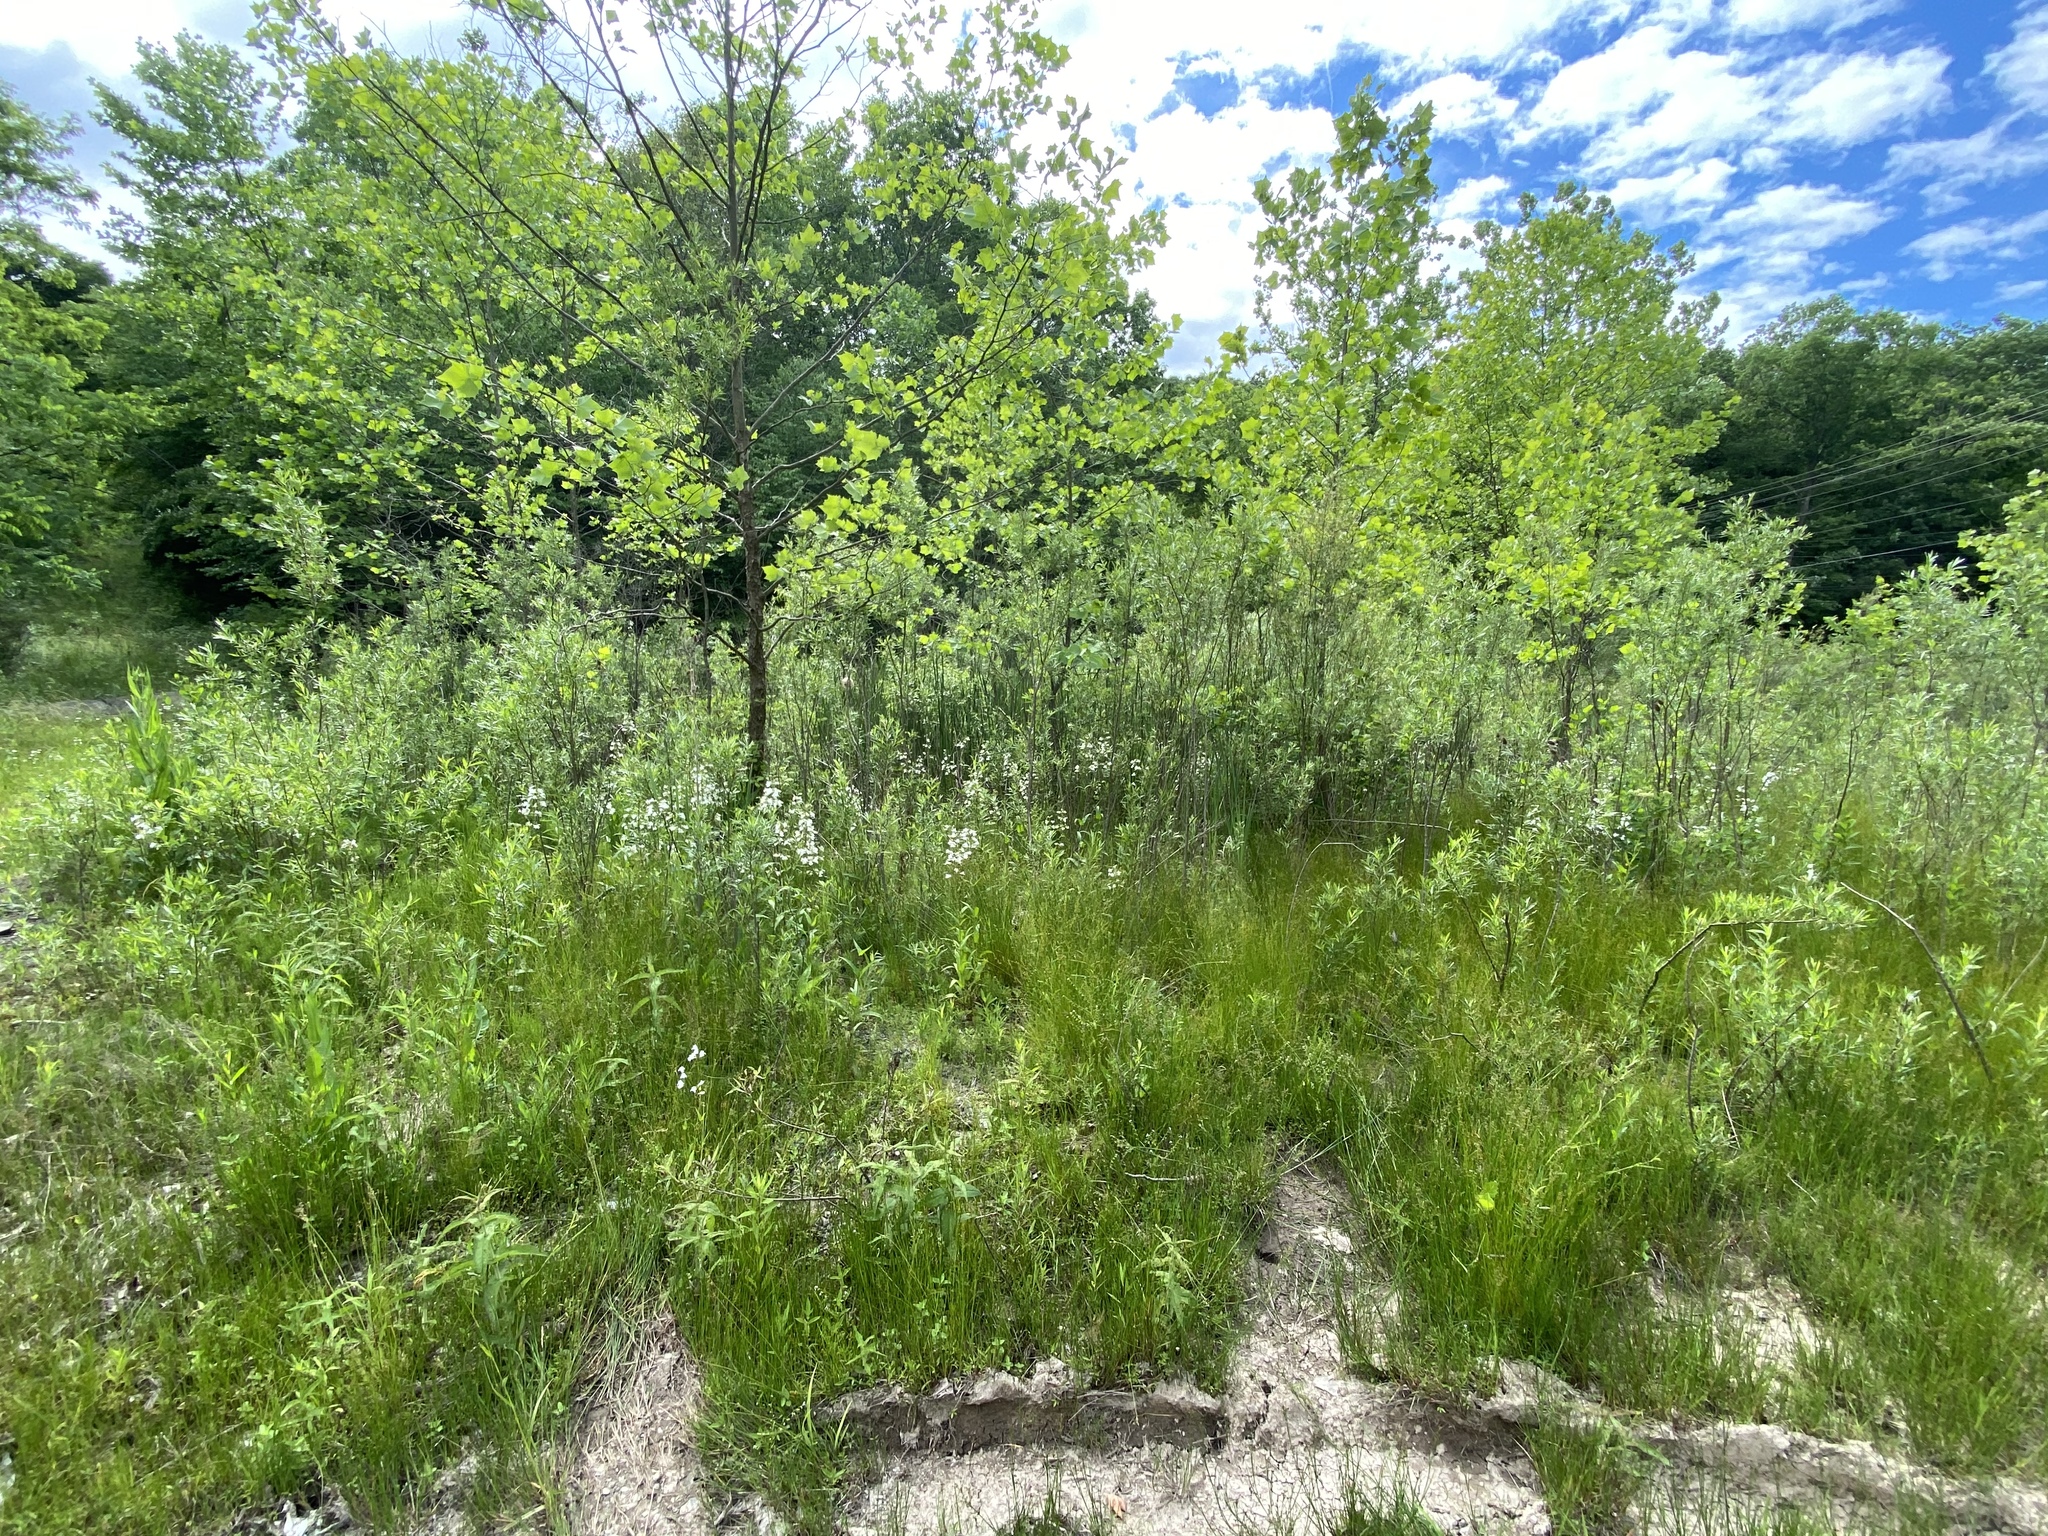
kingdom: Plantae
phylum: Tracheophyta
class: Magnoliopsida
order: Lamiales
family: Plantaginaceae
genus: Penstemon
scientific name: Penstemon digitalis
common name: Foxglove beardtongue
